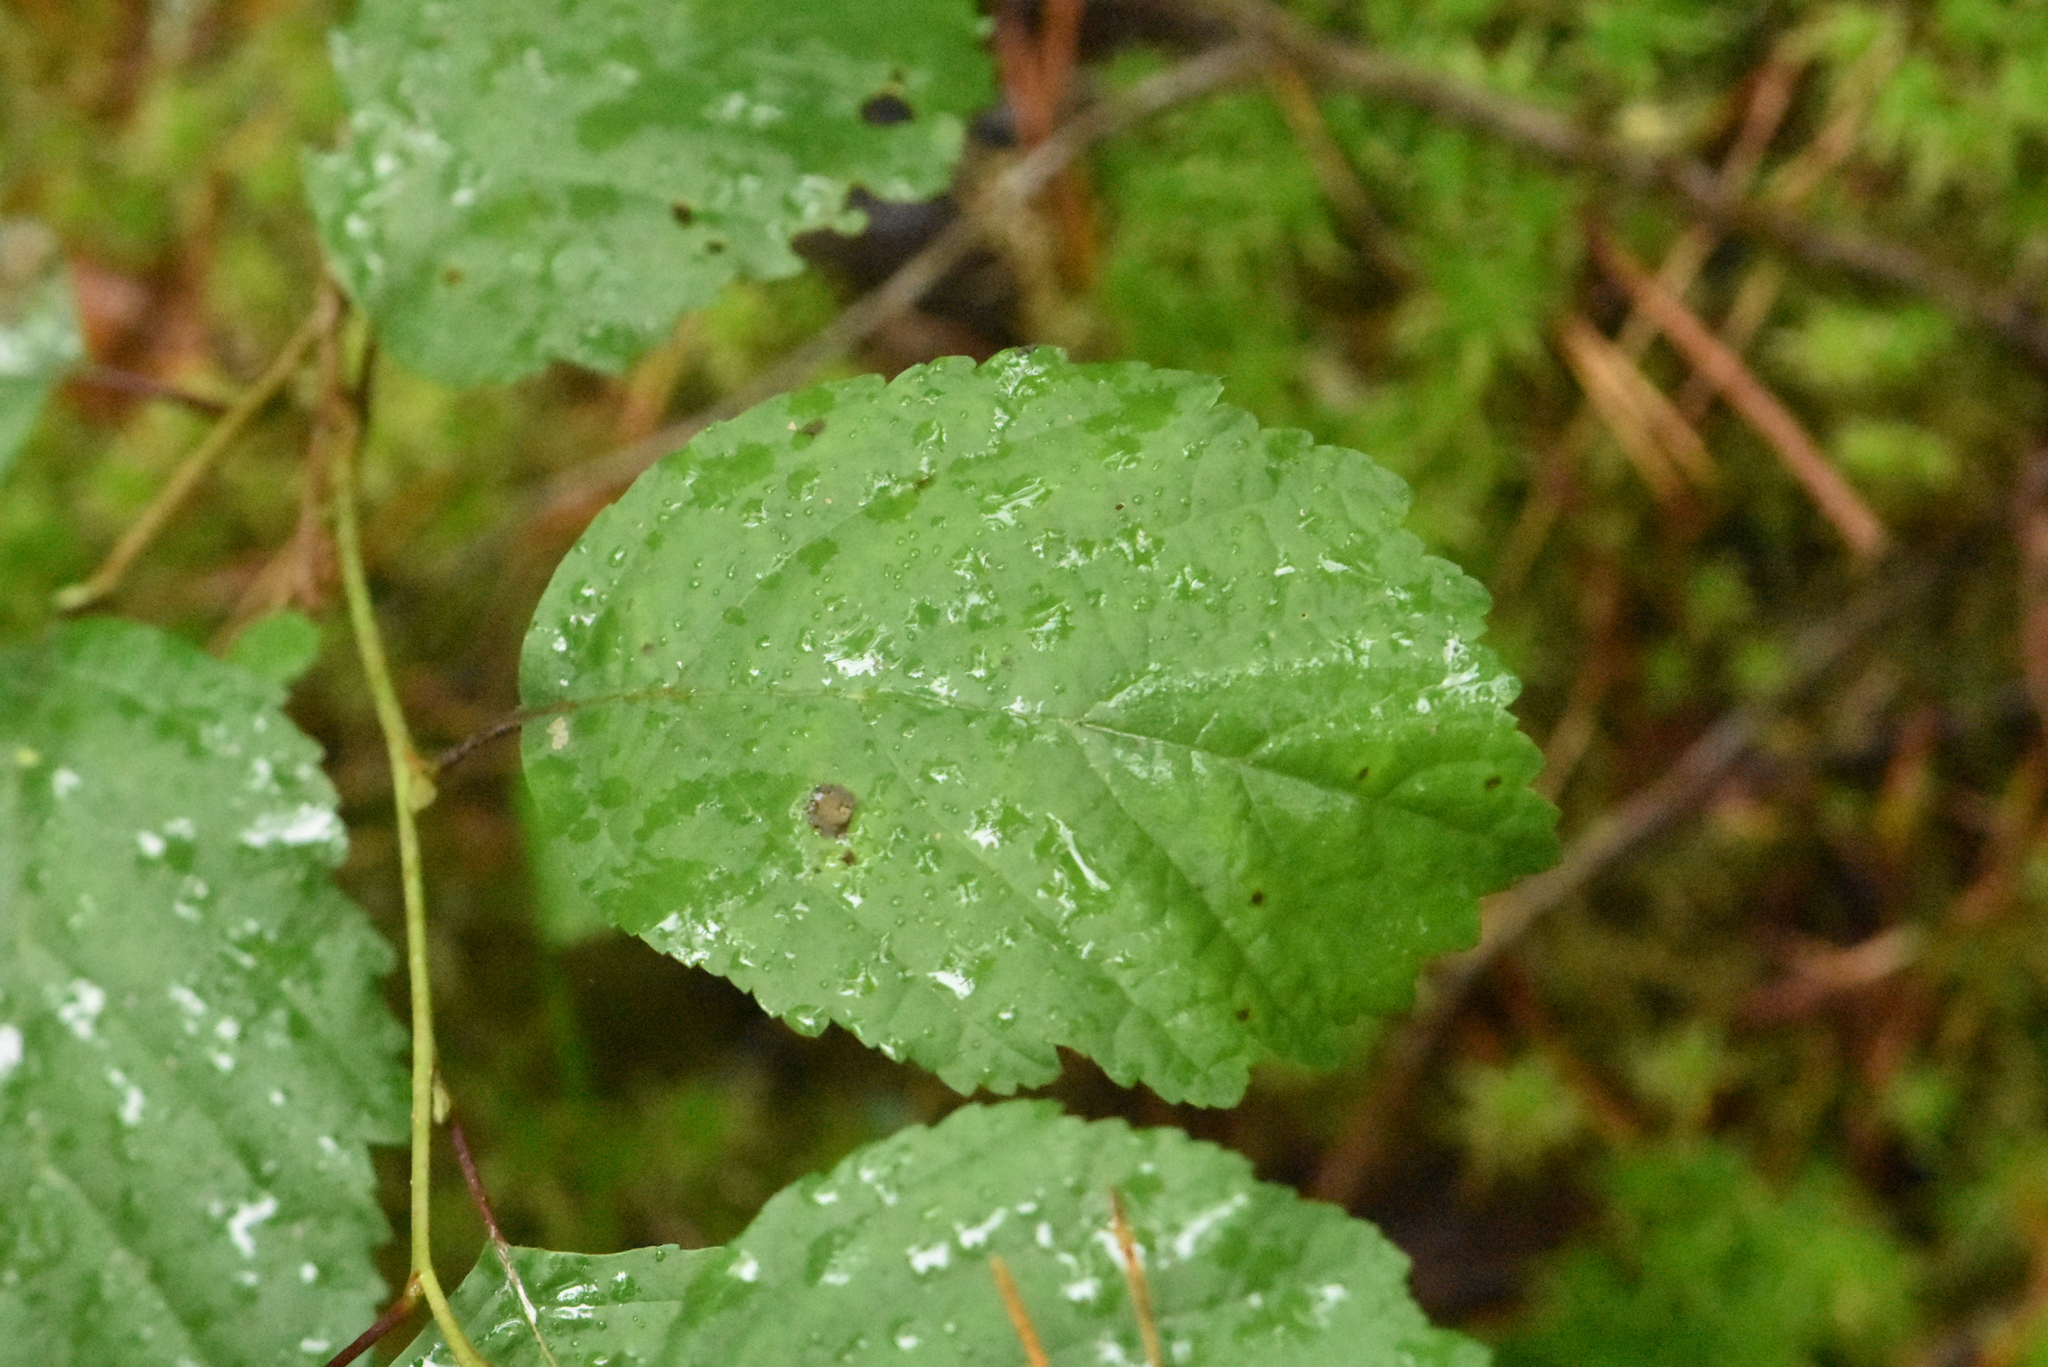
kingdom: Plantae
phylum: Tracheophyta
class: Magnoliopsida
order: Fagales
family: Betulaceae
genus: Alnus
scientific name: Alnus incana
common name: Grey alder
